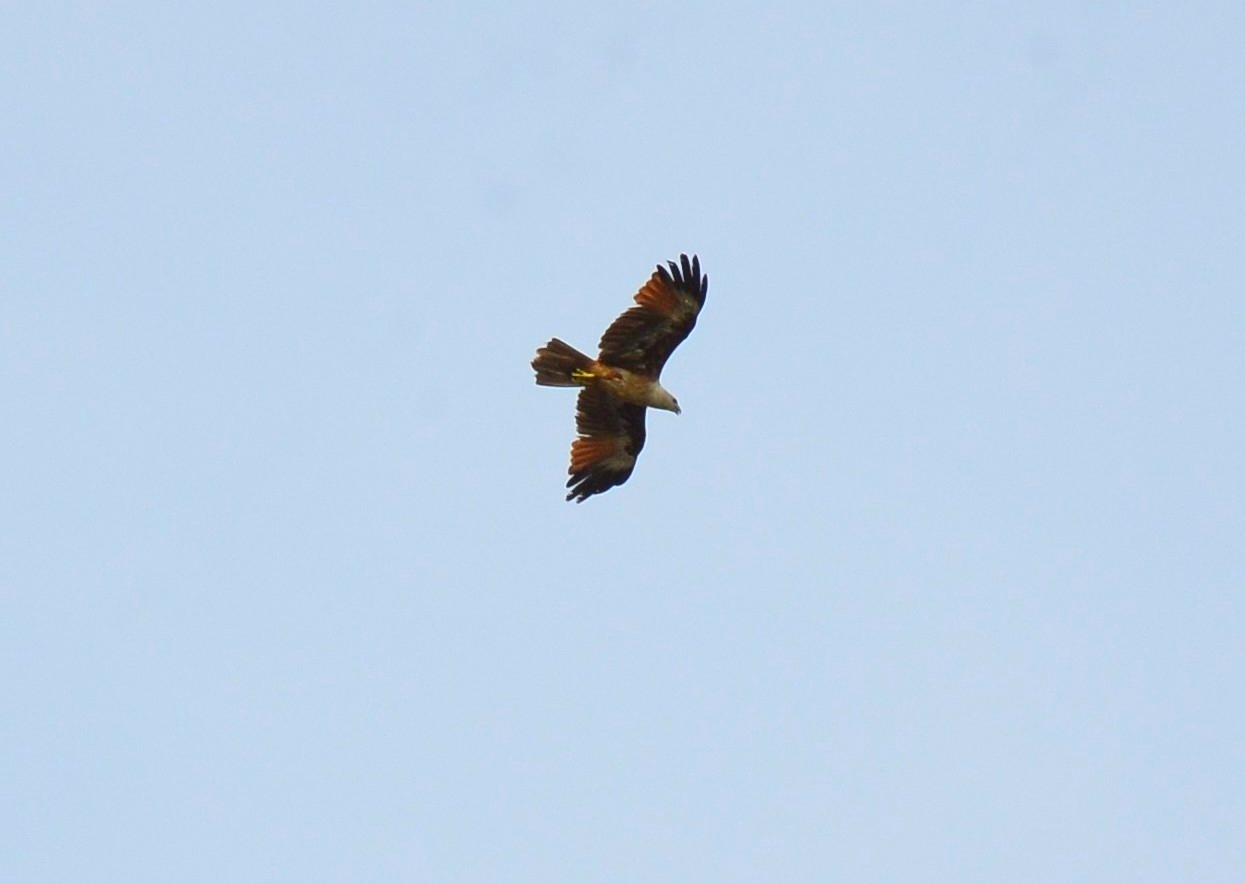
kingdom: Animalia
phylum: Chordata
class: Aves
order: Accipitriformes
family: Accipitridae
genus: Haliastur
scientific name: Haliastur indus
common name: Brahminy kite
